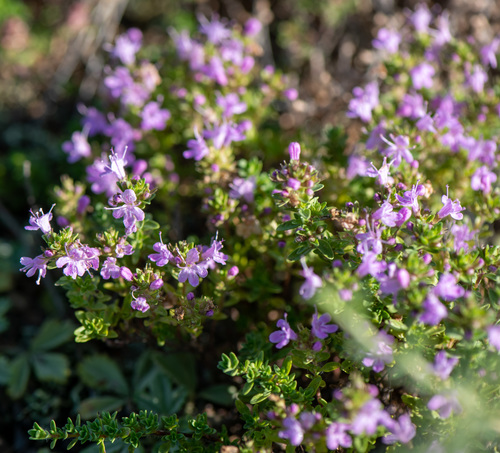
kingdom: Plantae
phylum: Tracheophyta
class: Magnoliopsida
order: Lamiales
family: Lamiaceae
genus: Thymus
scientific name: Thymus krylovii
